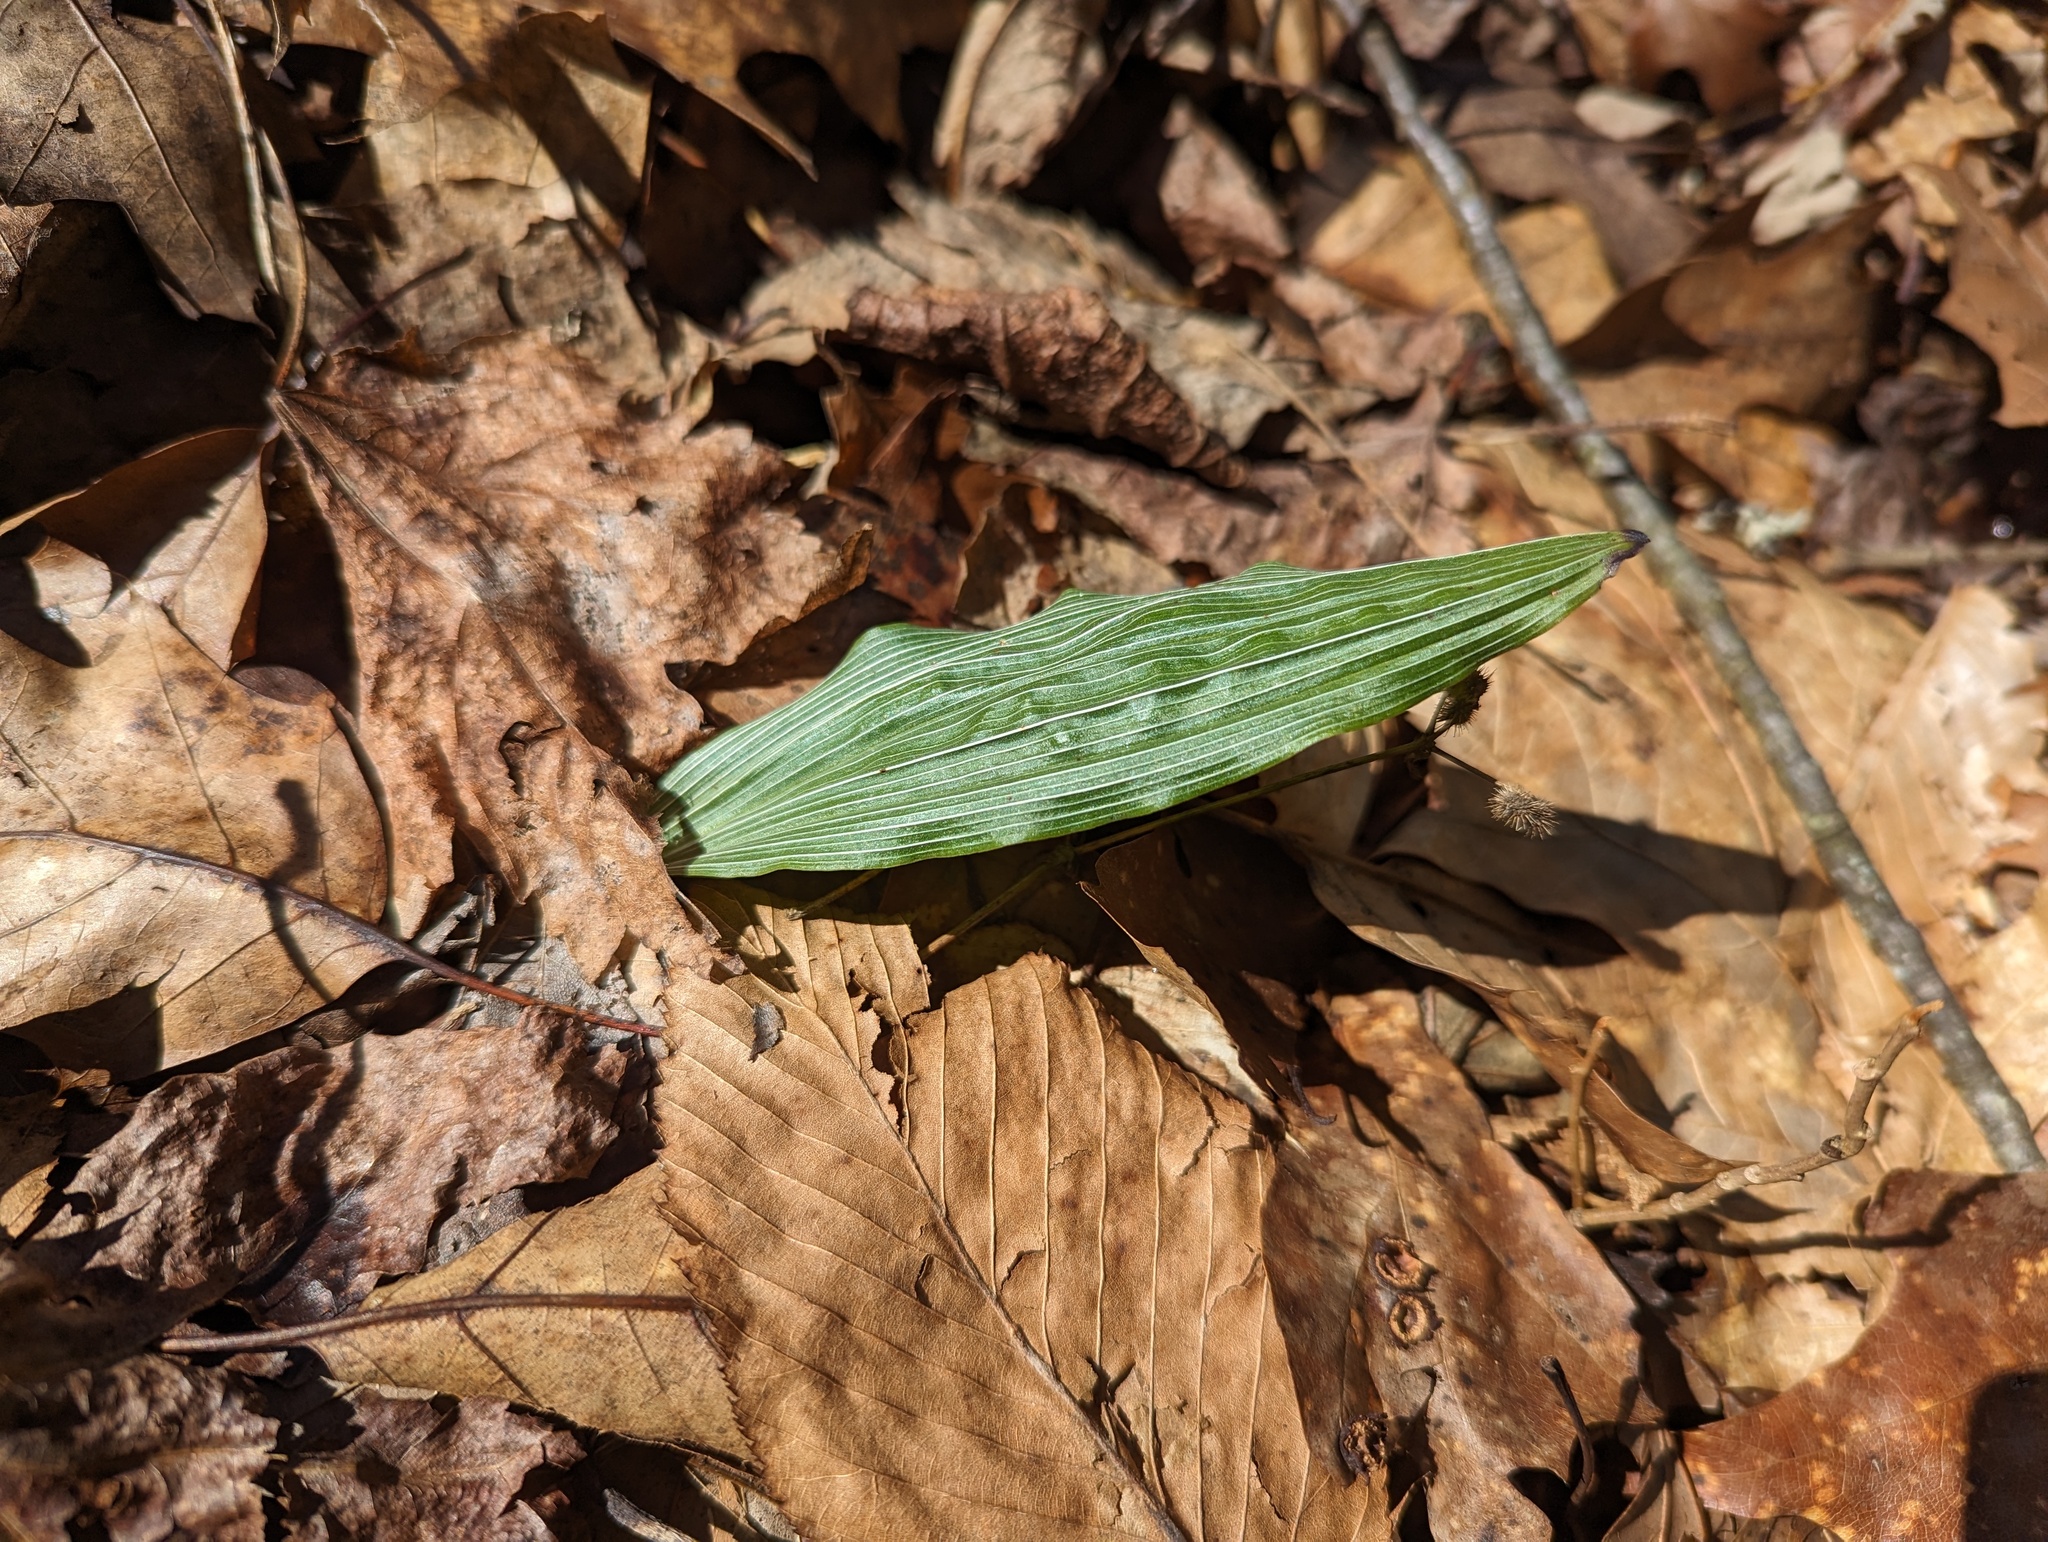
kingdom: Plantae
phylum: Tracheophyta
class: Liliopsida
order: Asparagales
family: Orchidaceae
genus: Aplectrum
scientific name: Aplectrum hyemale
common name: Adam-and-eve
